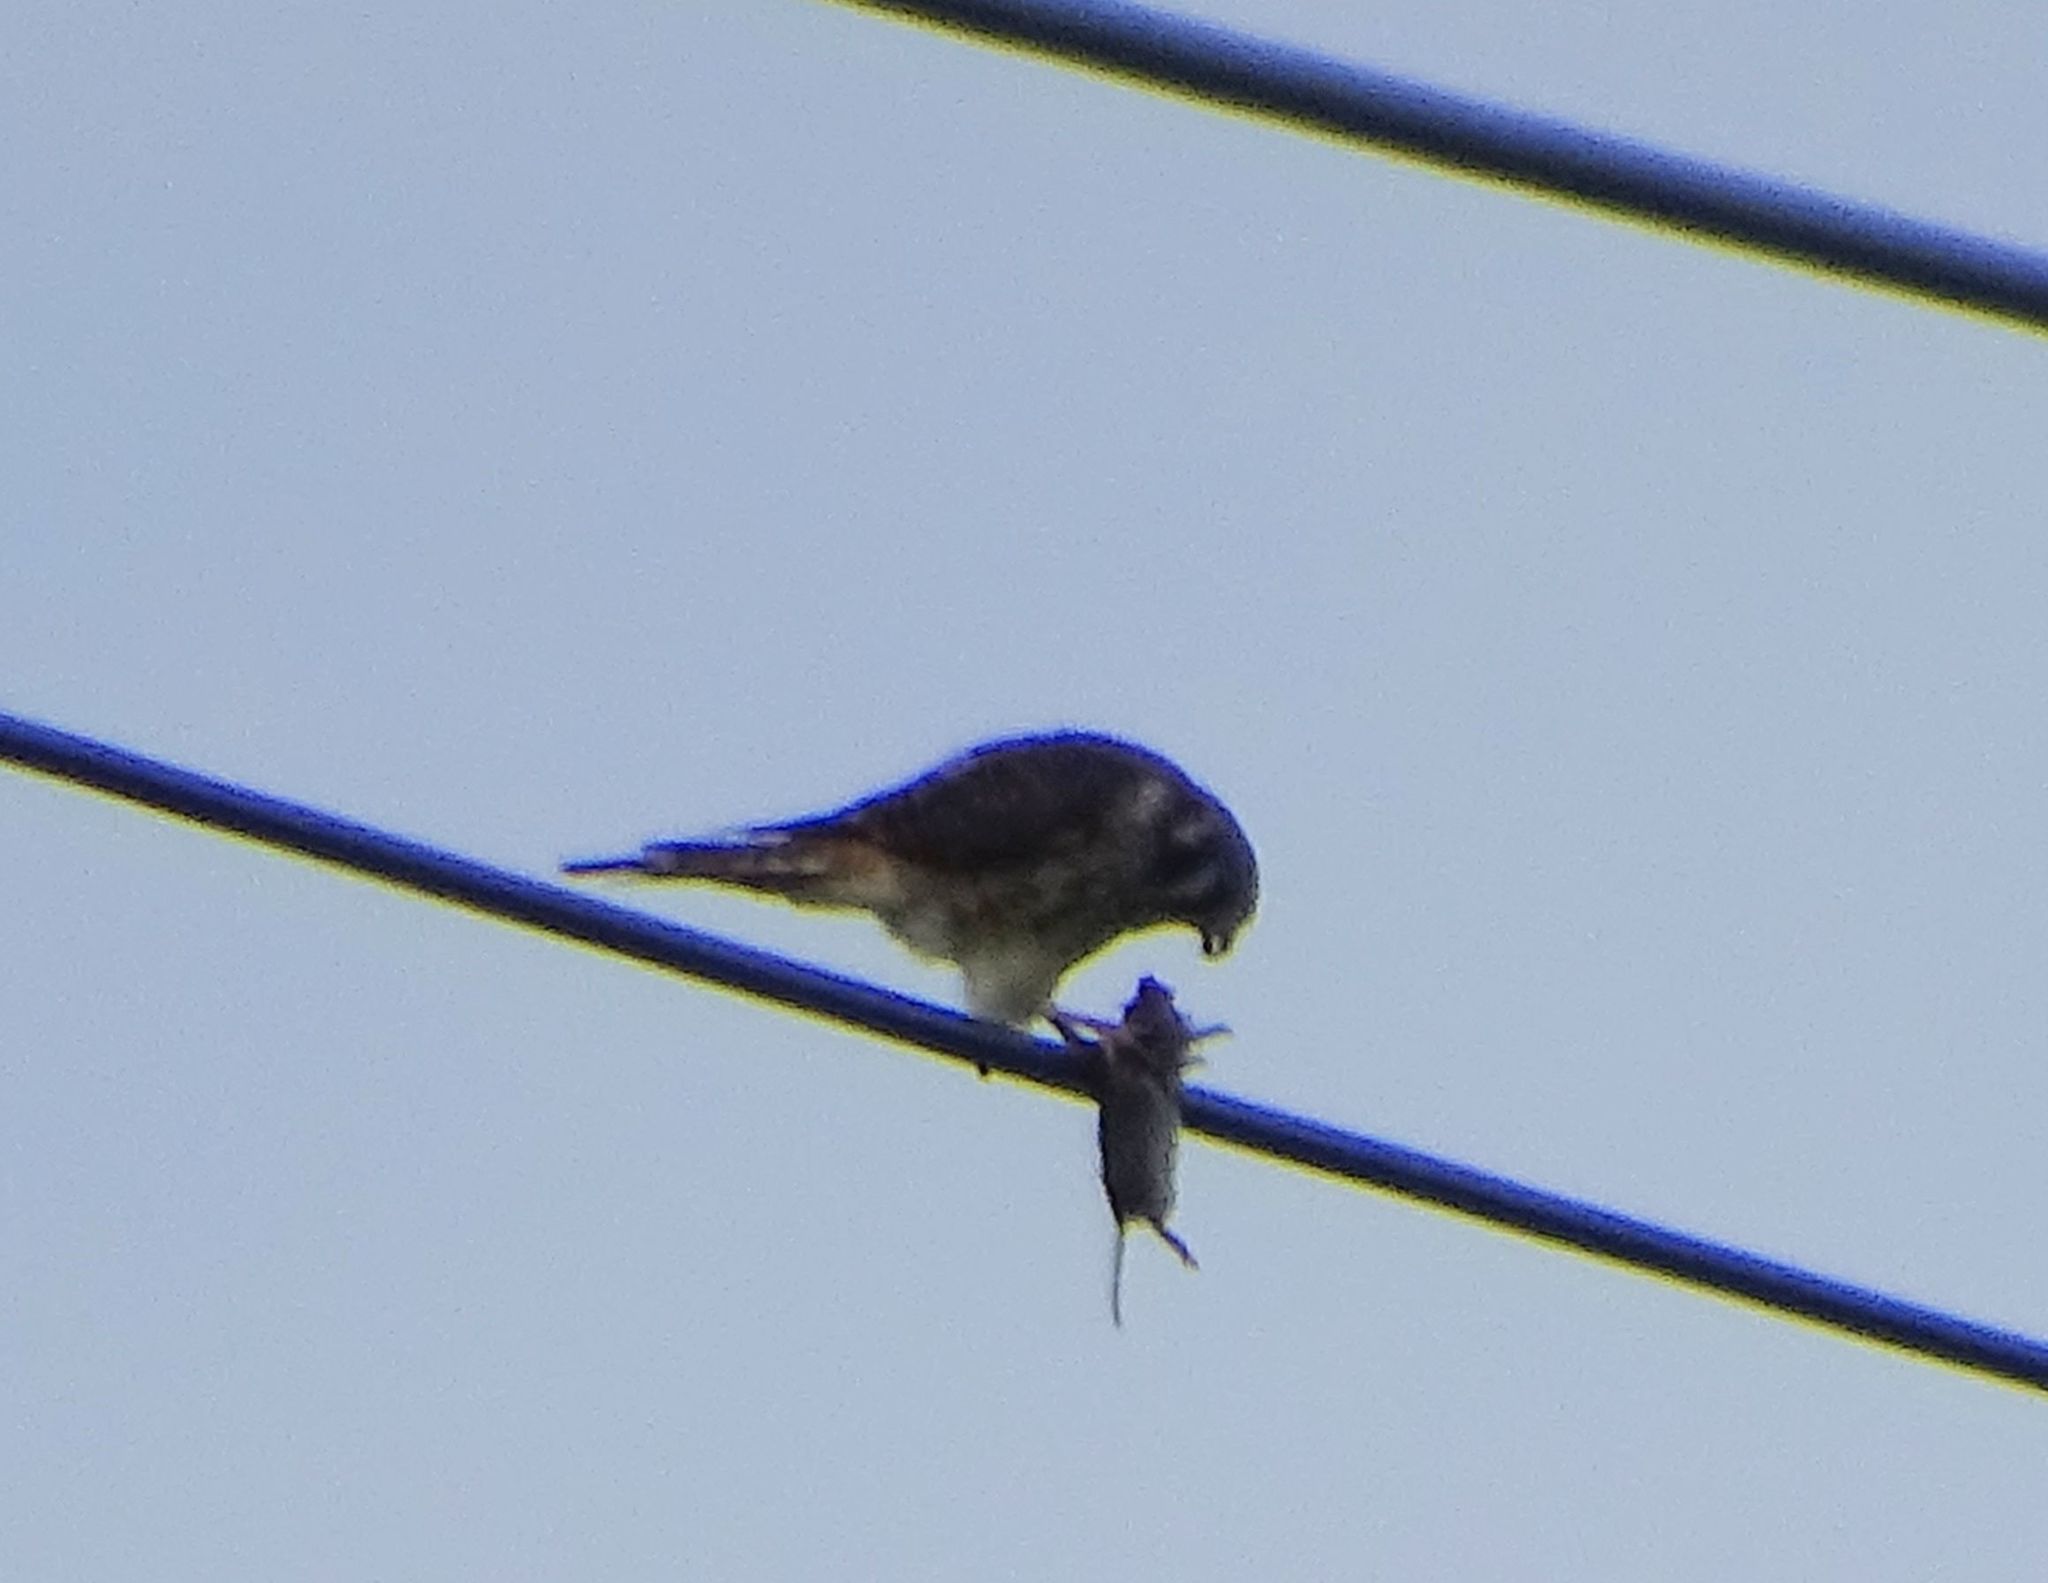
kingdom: Animalia
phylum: Chordata
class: Aves
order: Falconiformes
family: Falconidae
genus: Falco
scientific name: Falco sparverius
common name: American kestrel
